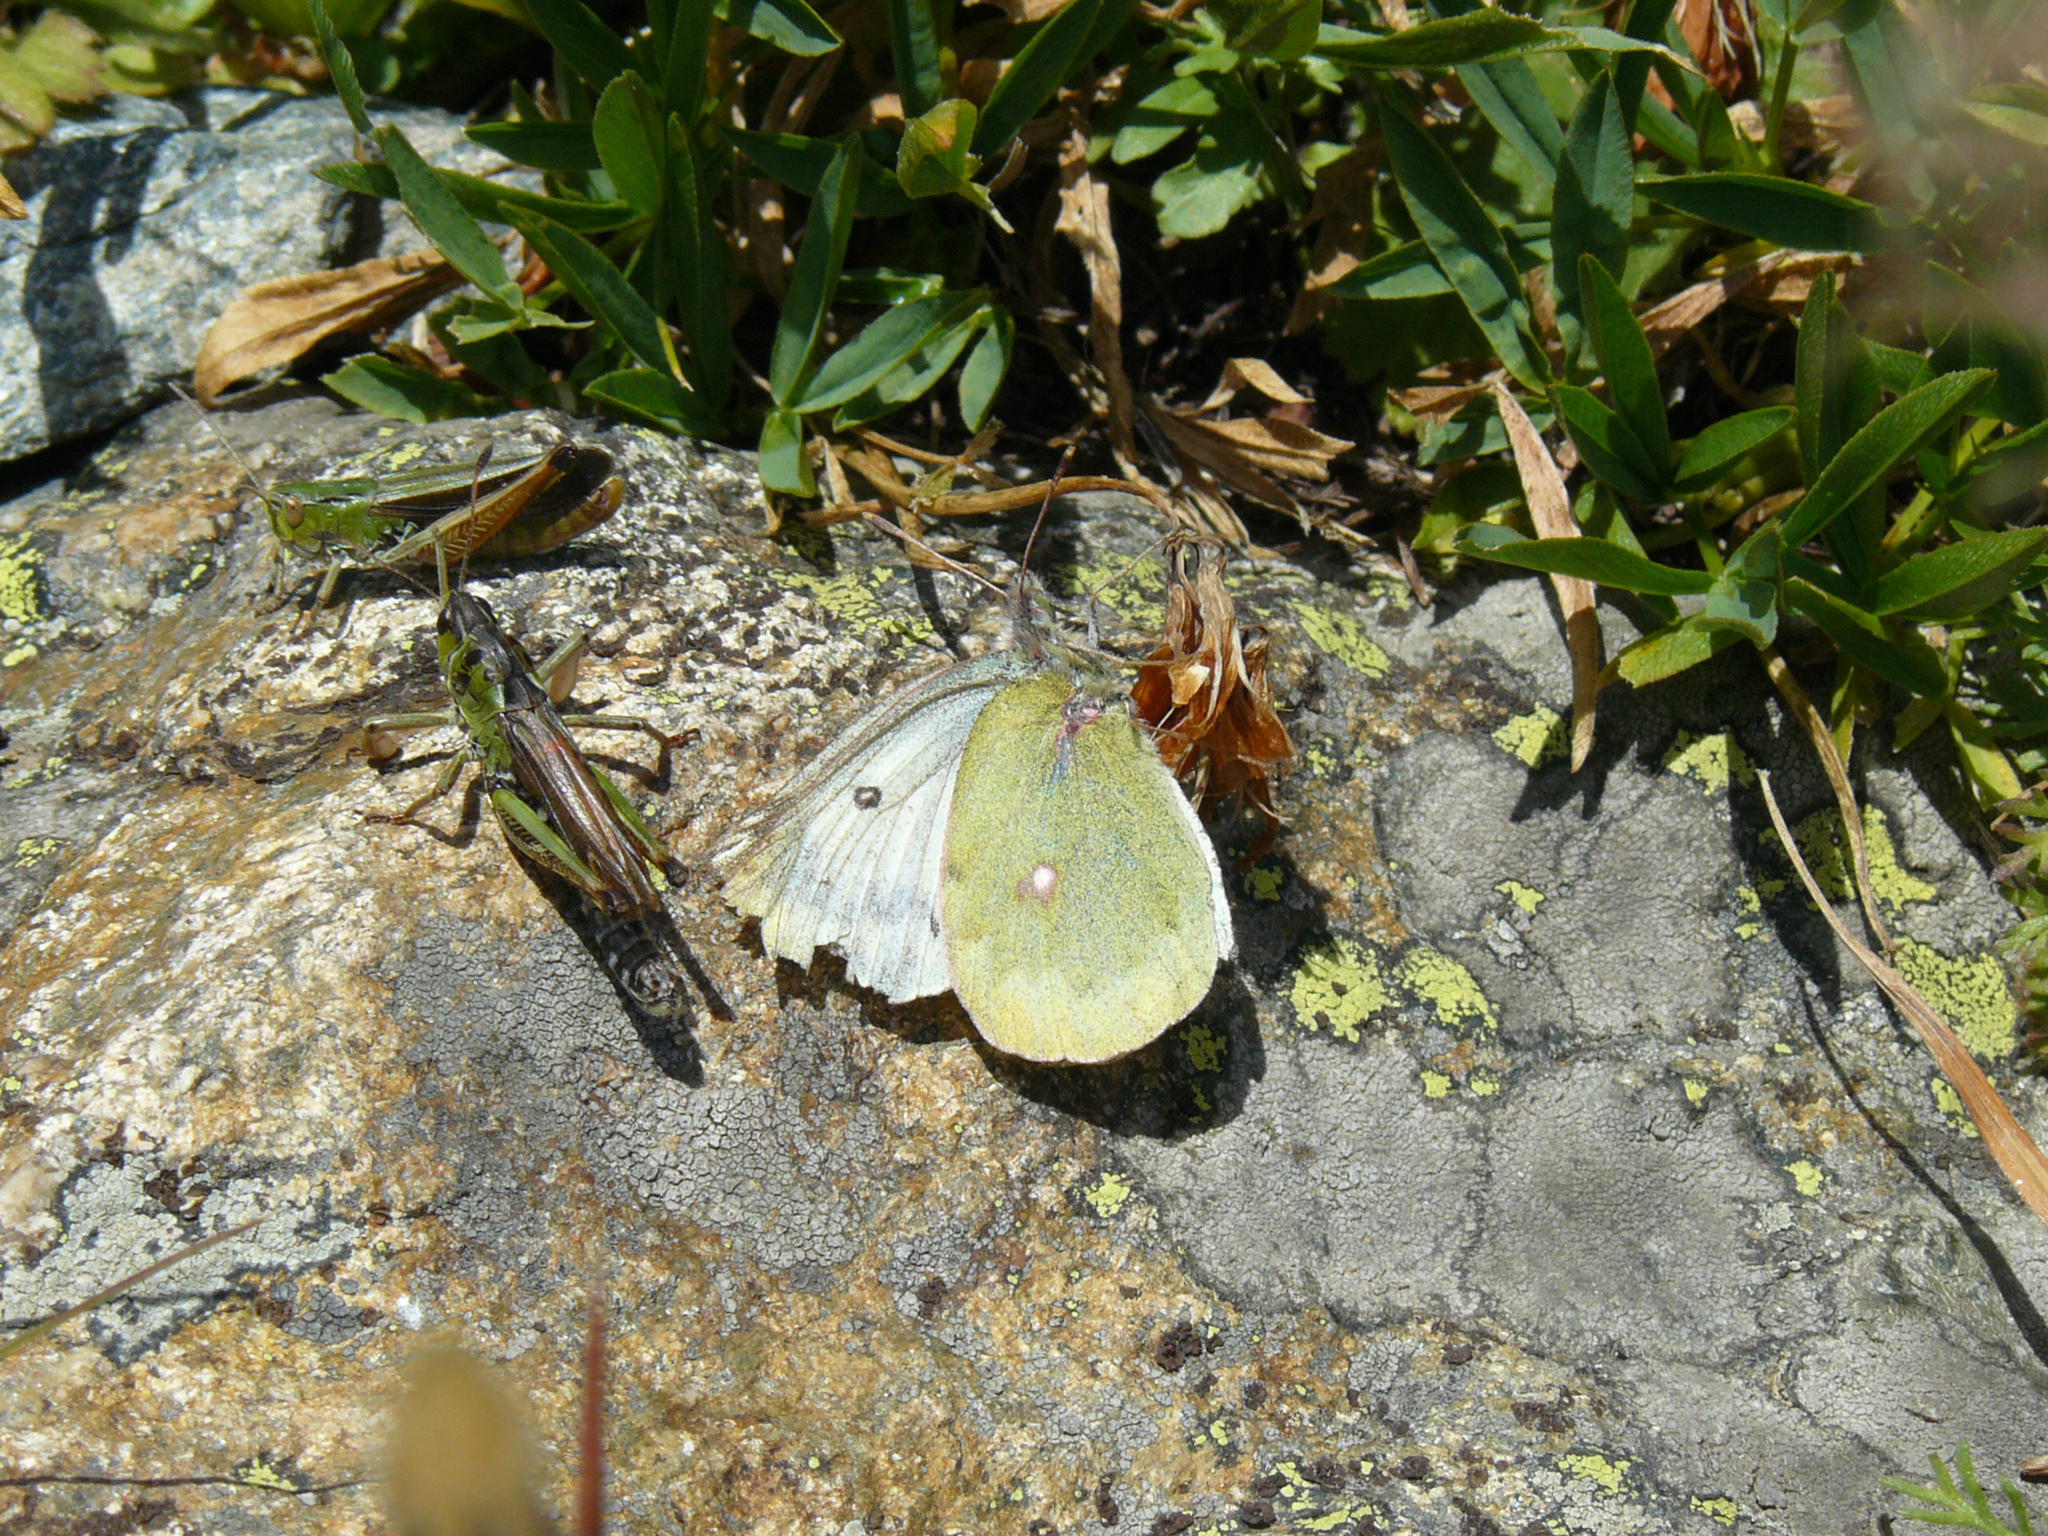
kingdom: Animalia
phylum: Arthropoda
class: Insecta
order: Lepidoptera
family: Pieridae
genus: Colias
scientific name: Colias phicomone
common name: Mountain clouded yellow
